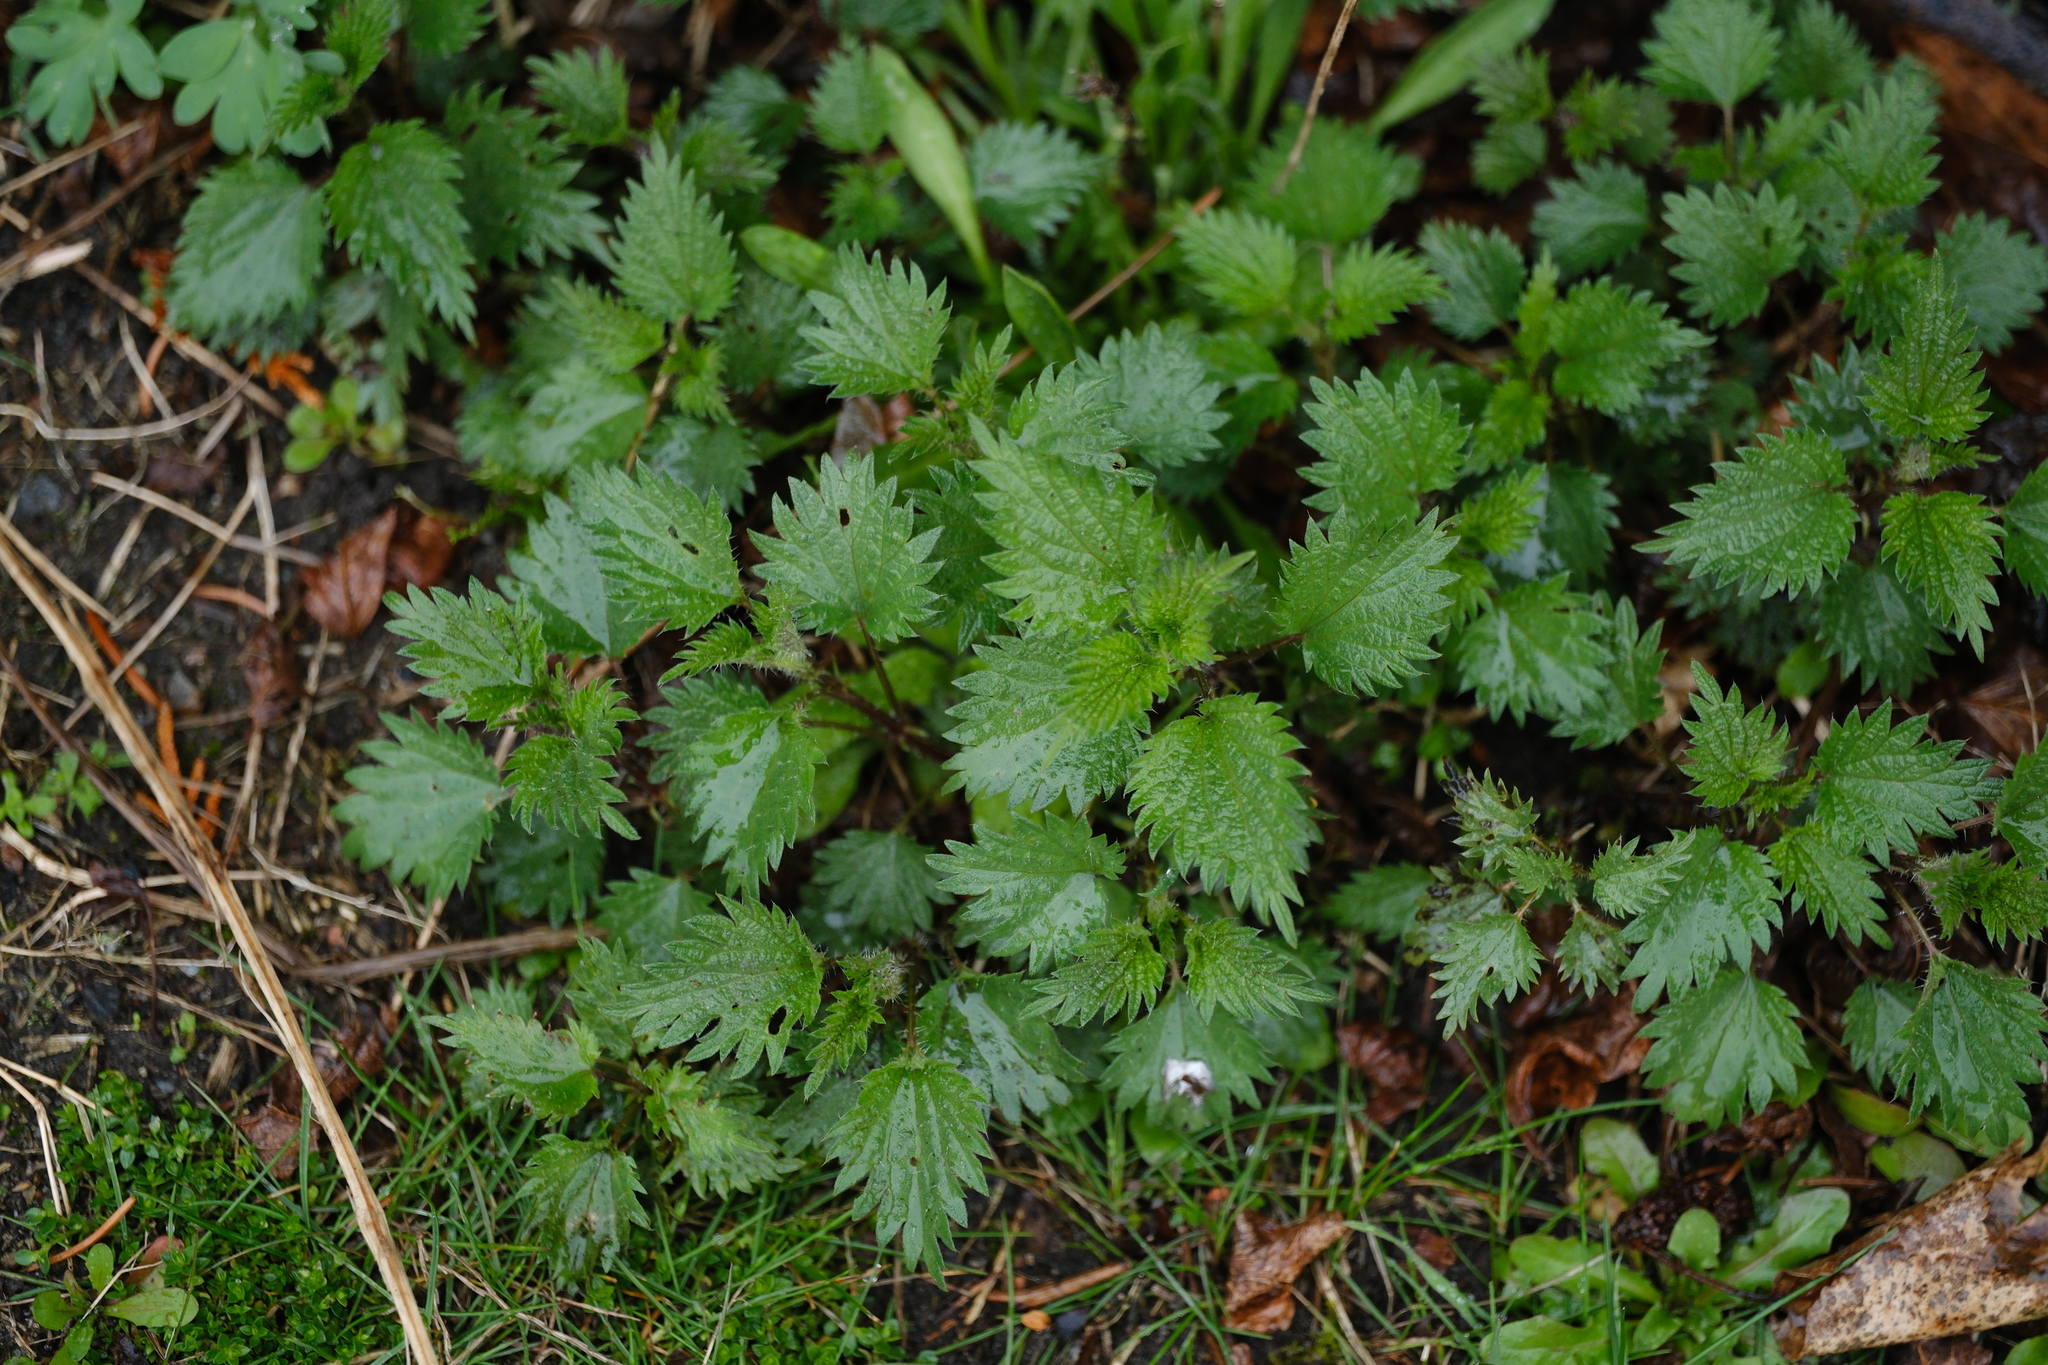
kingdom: Plantae
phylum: Tracheophyta
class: Magnoliopsida
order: Rosales
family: Urticaceae
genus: Urtica
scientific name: Urtica dioica
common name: Common nettle
